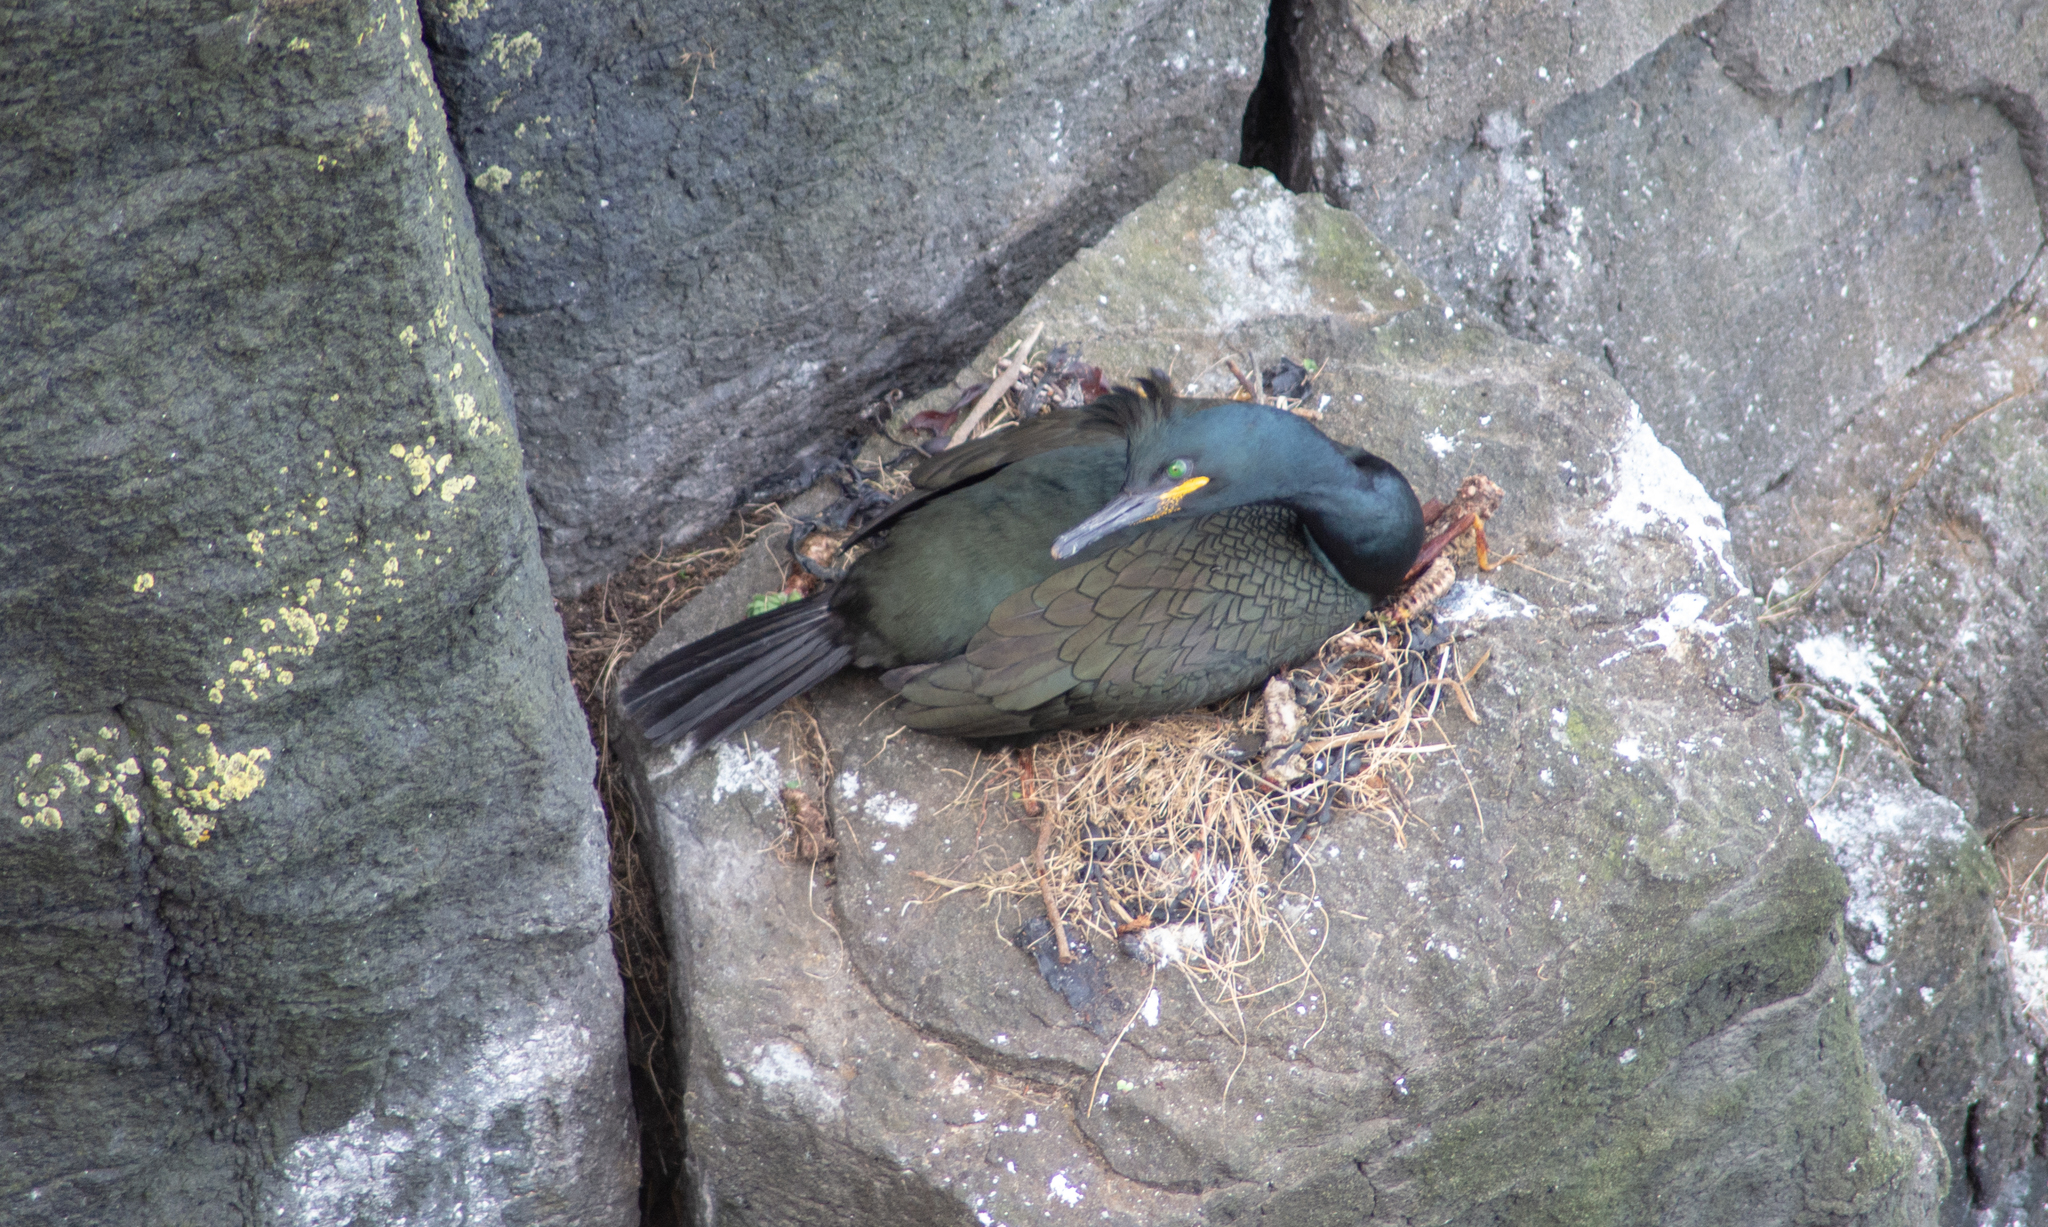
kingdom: Animalia
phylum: Chordata
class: Aves
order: Suliformes
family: Phalacrocoracidae
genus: Phalacrocorax
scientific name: Phalacrocorax aristotelis
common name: European shag
